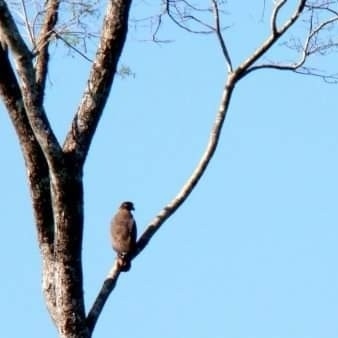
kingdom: Animalia
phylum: Chordata
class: Aves
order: Accipitriformes
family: Accipitridae
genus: Spilornis
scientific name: Spilornis cheela
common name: Crested serpent eagle
